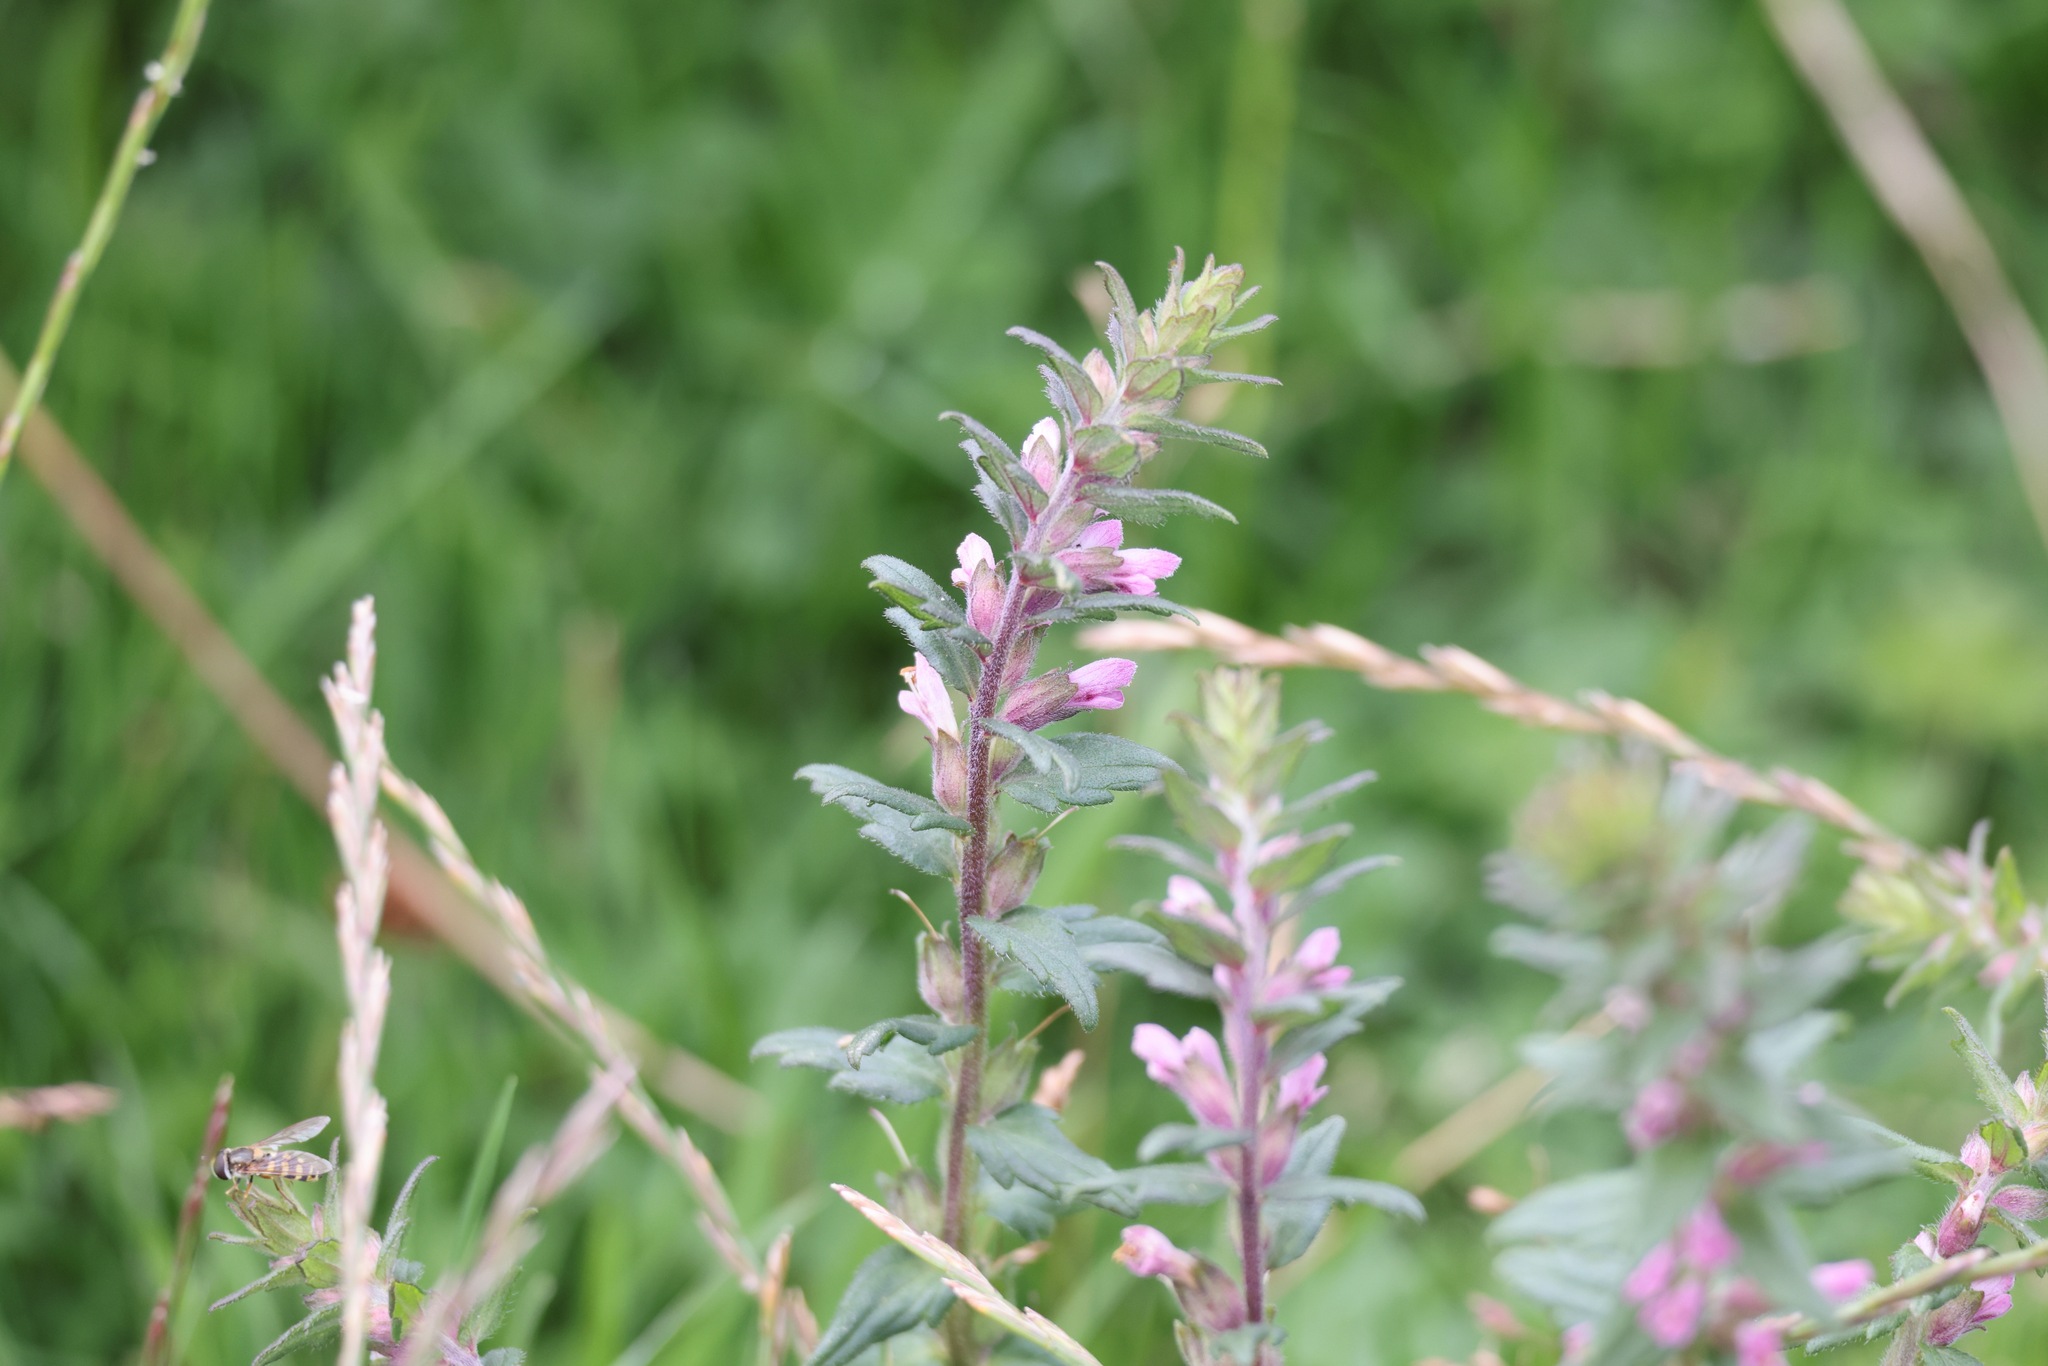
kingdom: Plantae
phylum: Tracheophyta
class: Magnoliopsida
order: Lamiales
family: Orobanchaceae
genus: Odontites
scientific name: Odontites vulgaris
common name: Broomrape
